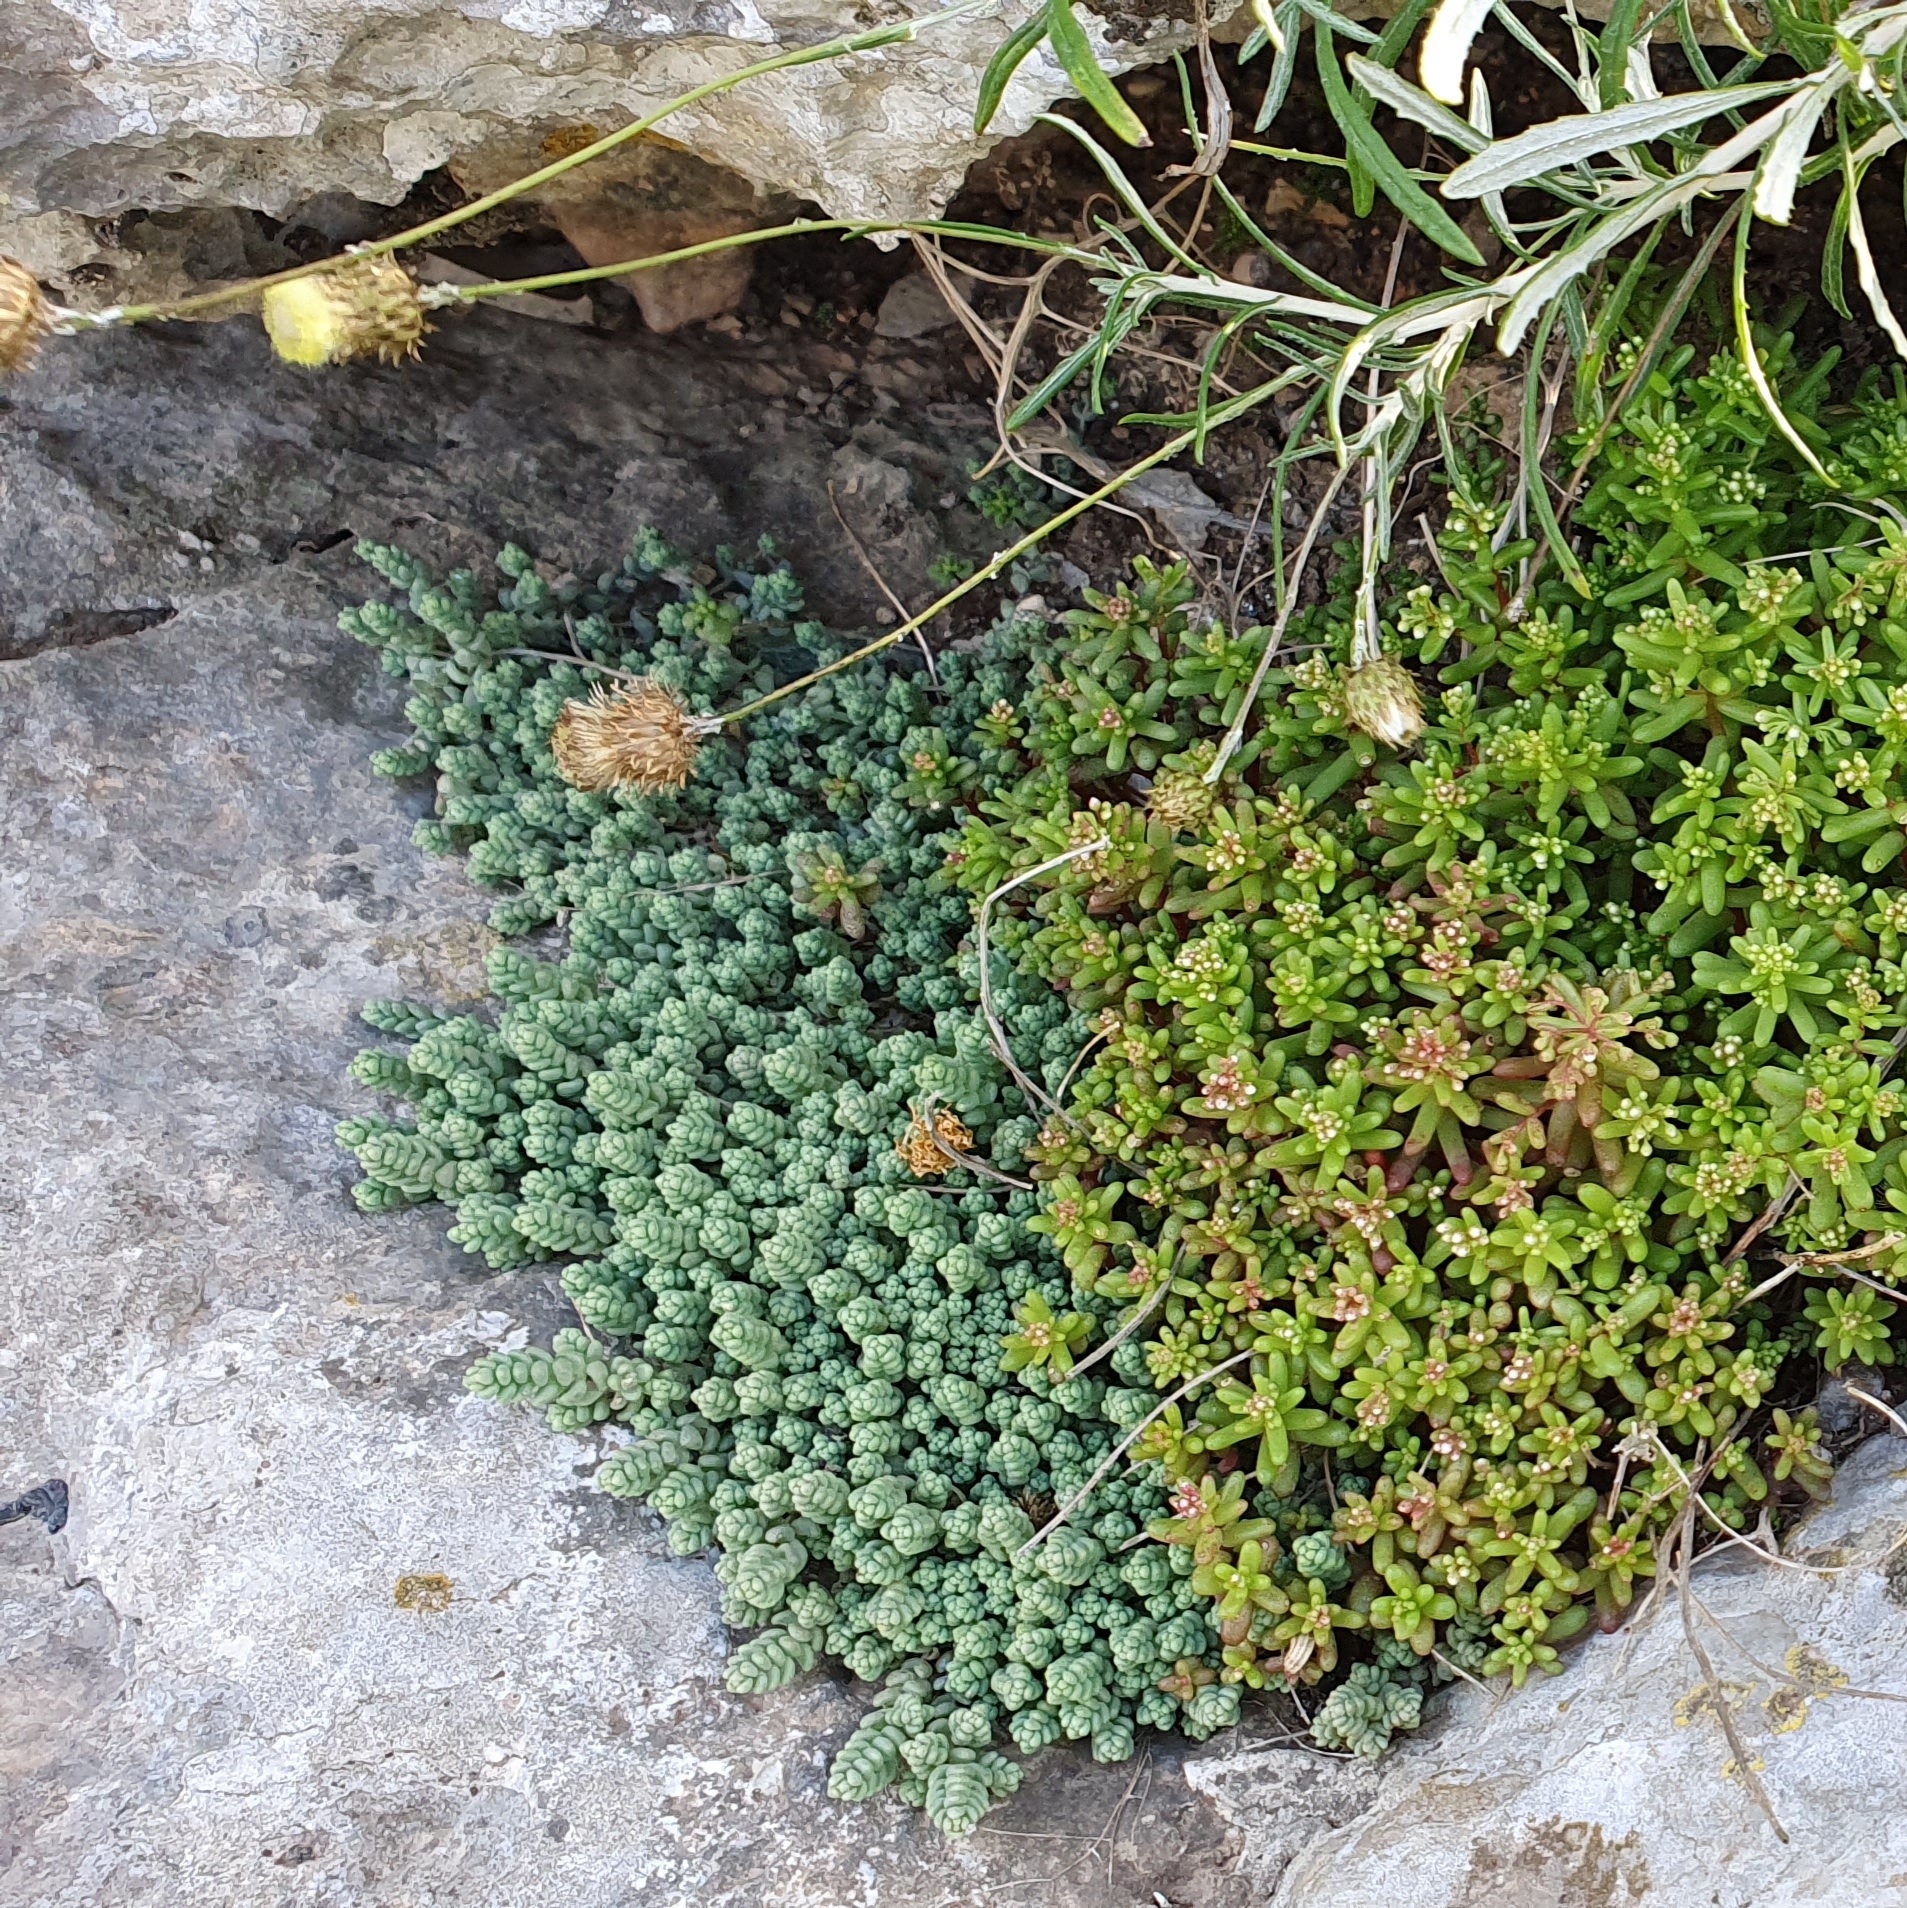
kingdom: Plantae
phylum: Tracheophyta
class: Magnoliopsida
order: Saxifragales
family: Crassulaceae
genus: Sedum
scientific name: Sedum dasyphyllum
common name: Thick-leaf stonecrop
